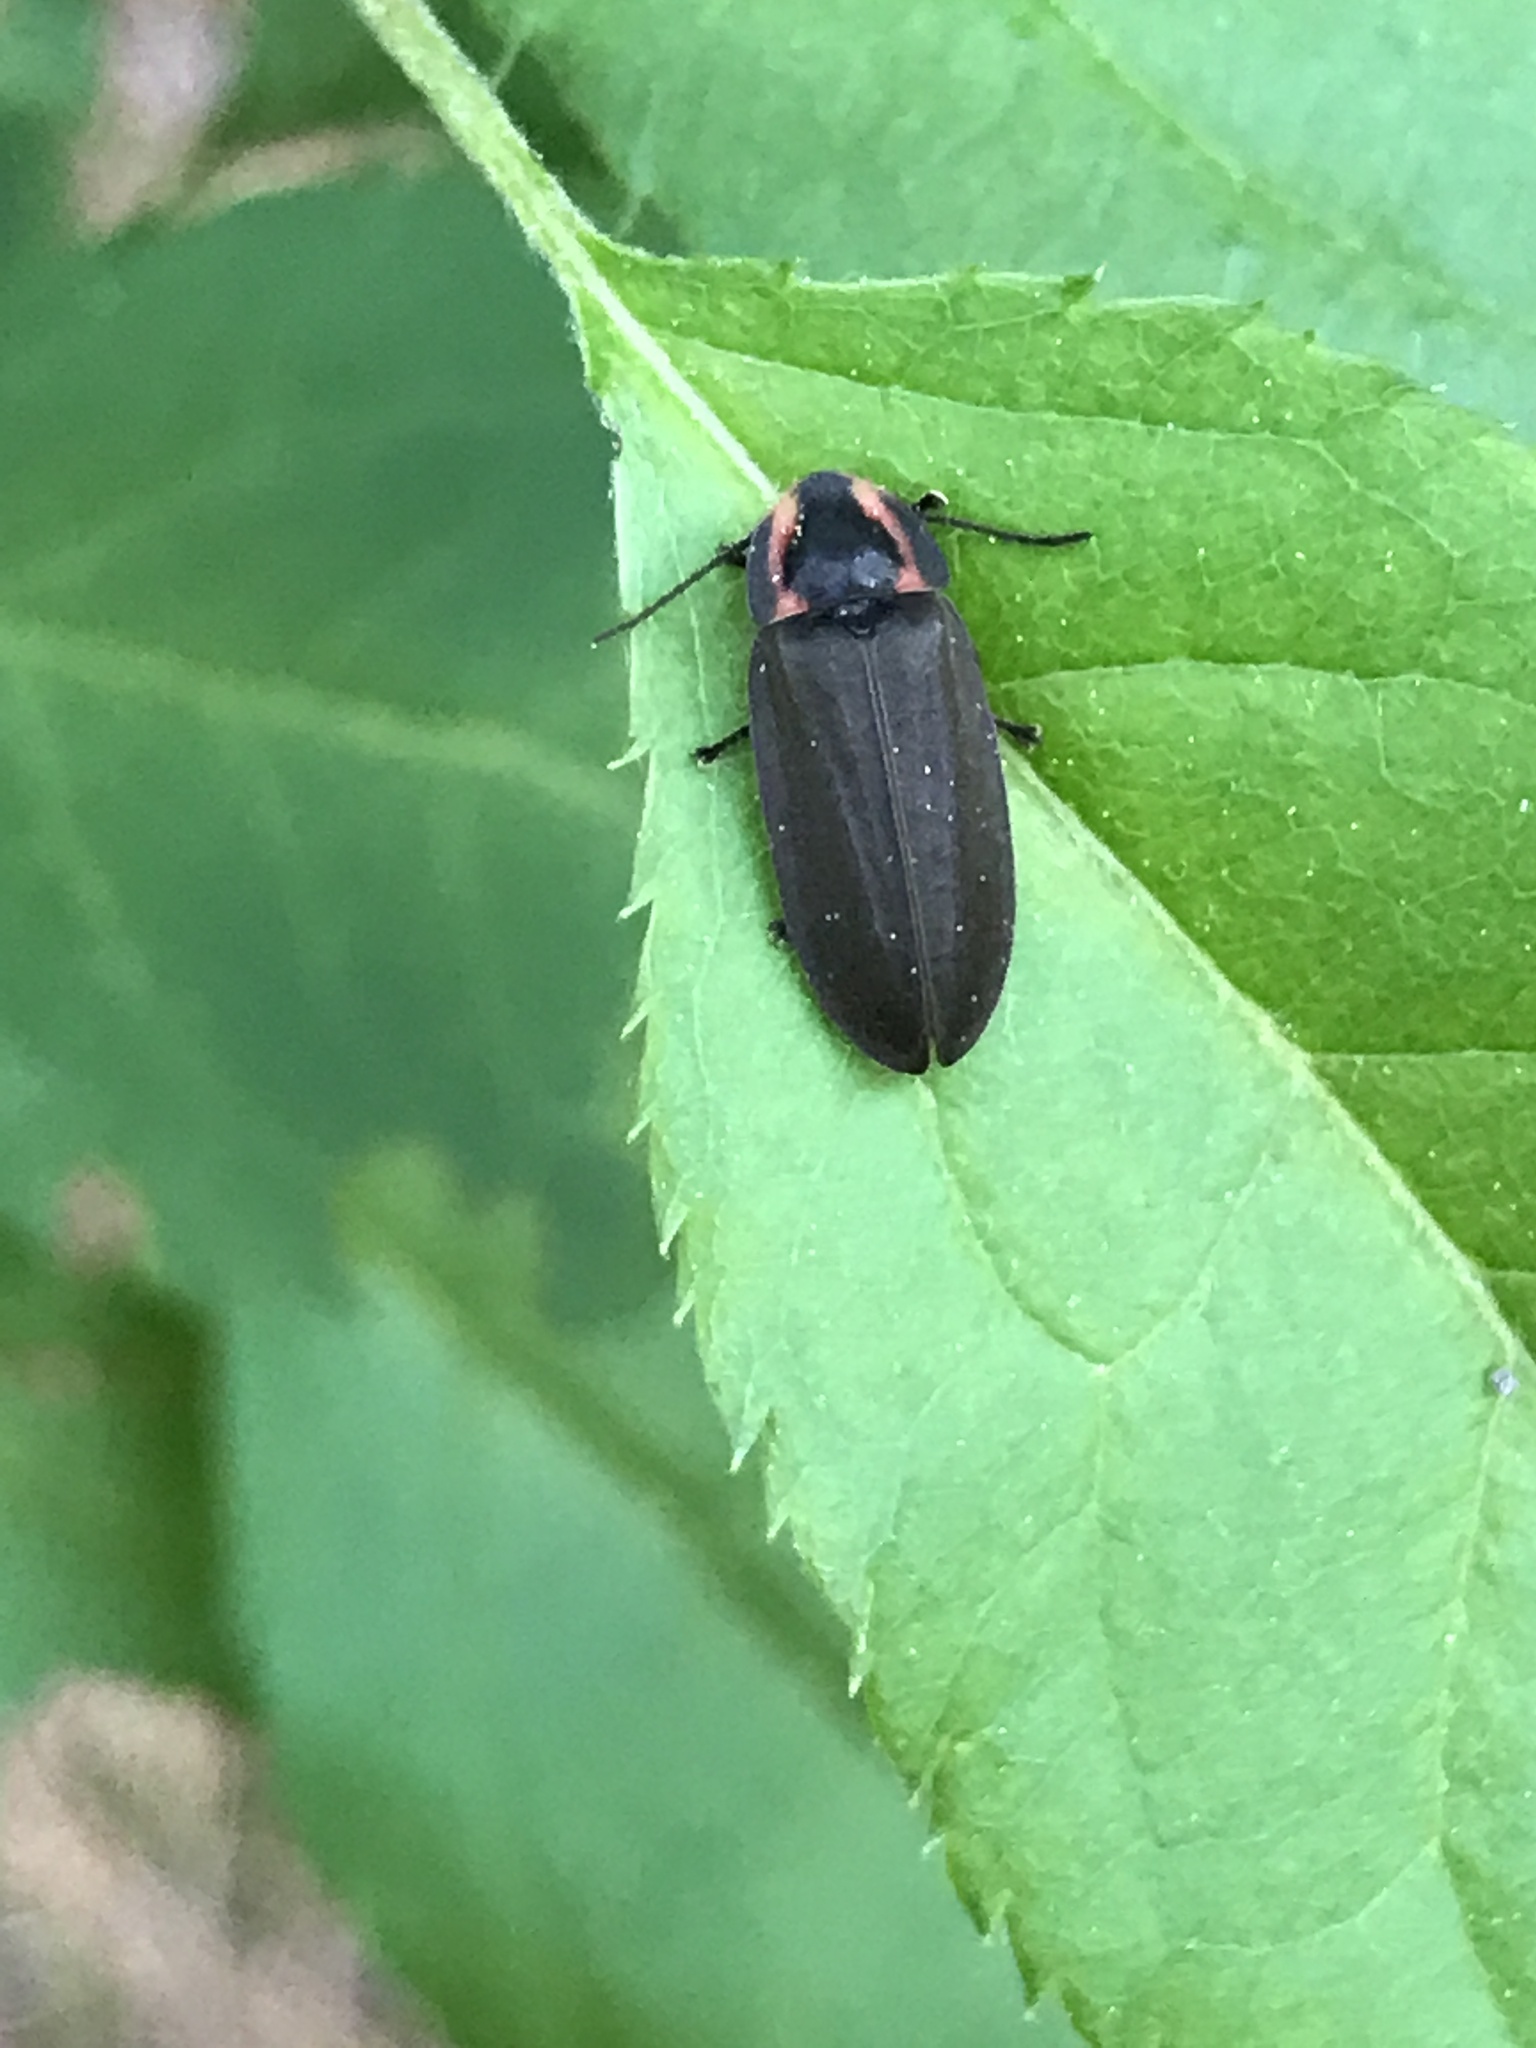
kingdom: Animalia
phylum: Arthropoda
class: Insecta
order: Coleoptera
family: Lampyridae
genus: Photinus
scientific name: Photinus corrusca
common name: Winter firefly
